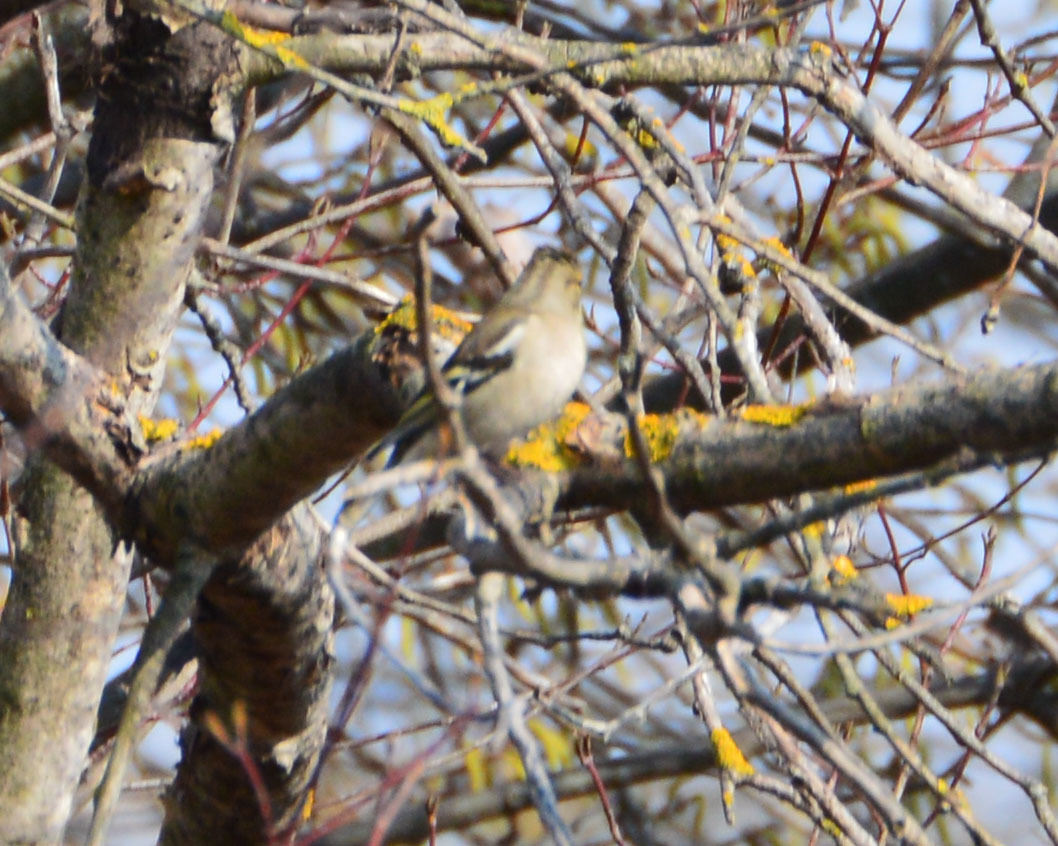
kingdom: Animalia
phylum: Chordata
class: Aves
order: Passeriformes
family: Fringillidae
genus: Fringilla
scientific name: Fringilla coelebs
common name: Common chaffinch
